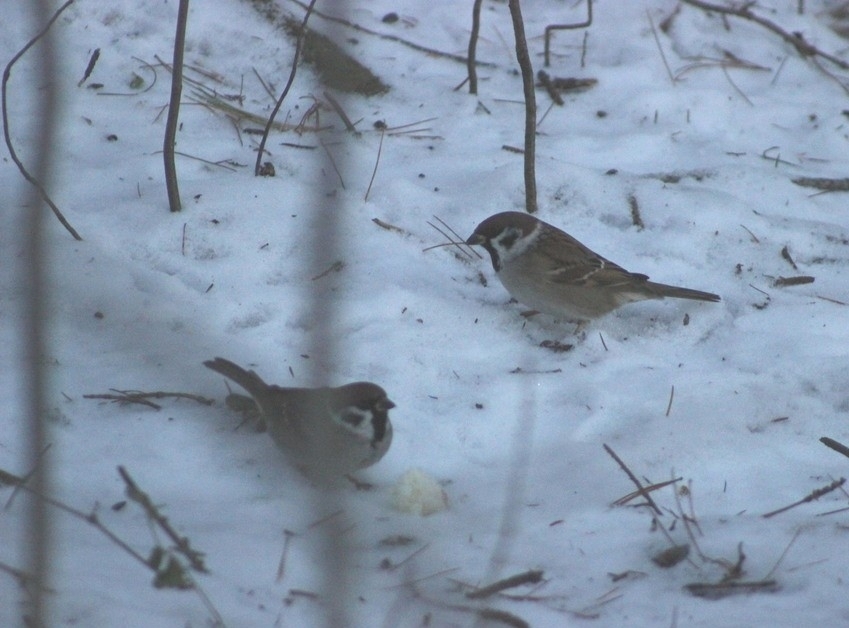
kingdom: Animalia
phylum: Chordata
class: Aves
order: Passeriformes
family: Passeridae
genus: Passer
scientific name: Passer montanus
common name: Eurasian tree sparrow
